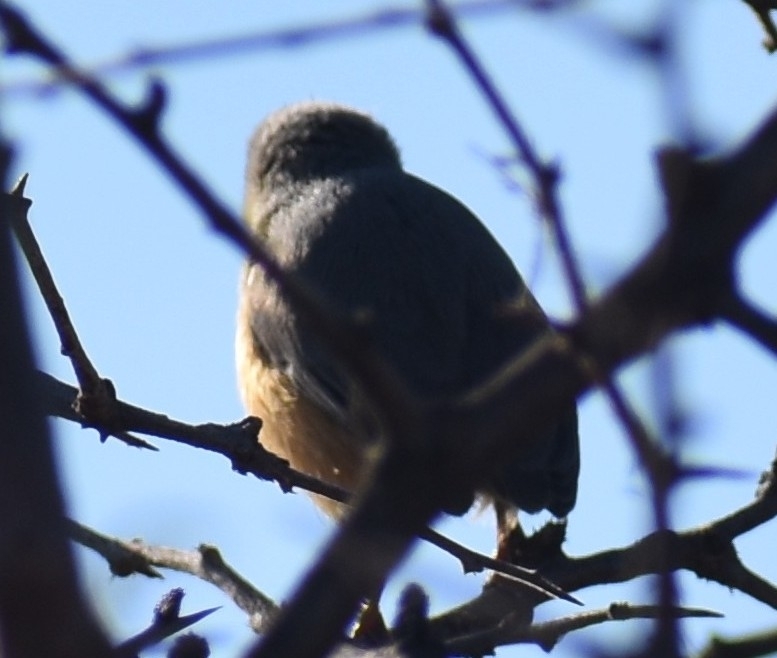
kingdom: Animalia
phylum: Chordata
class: Aves
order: Passeriformes
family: Macrosphenidae
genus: Sylvietta
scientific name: Sylvietta rufescens
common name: Long-billed crombec
